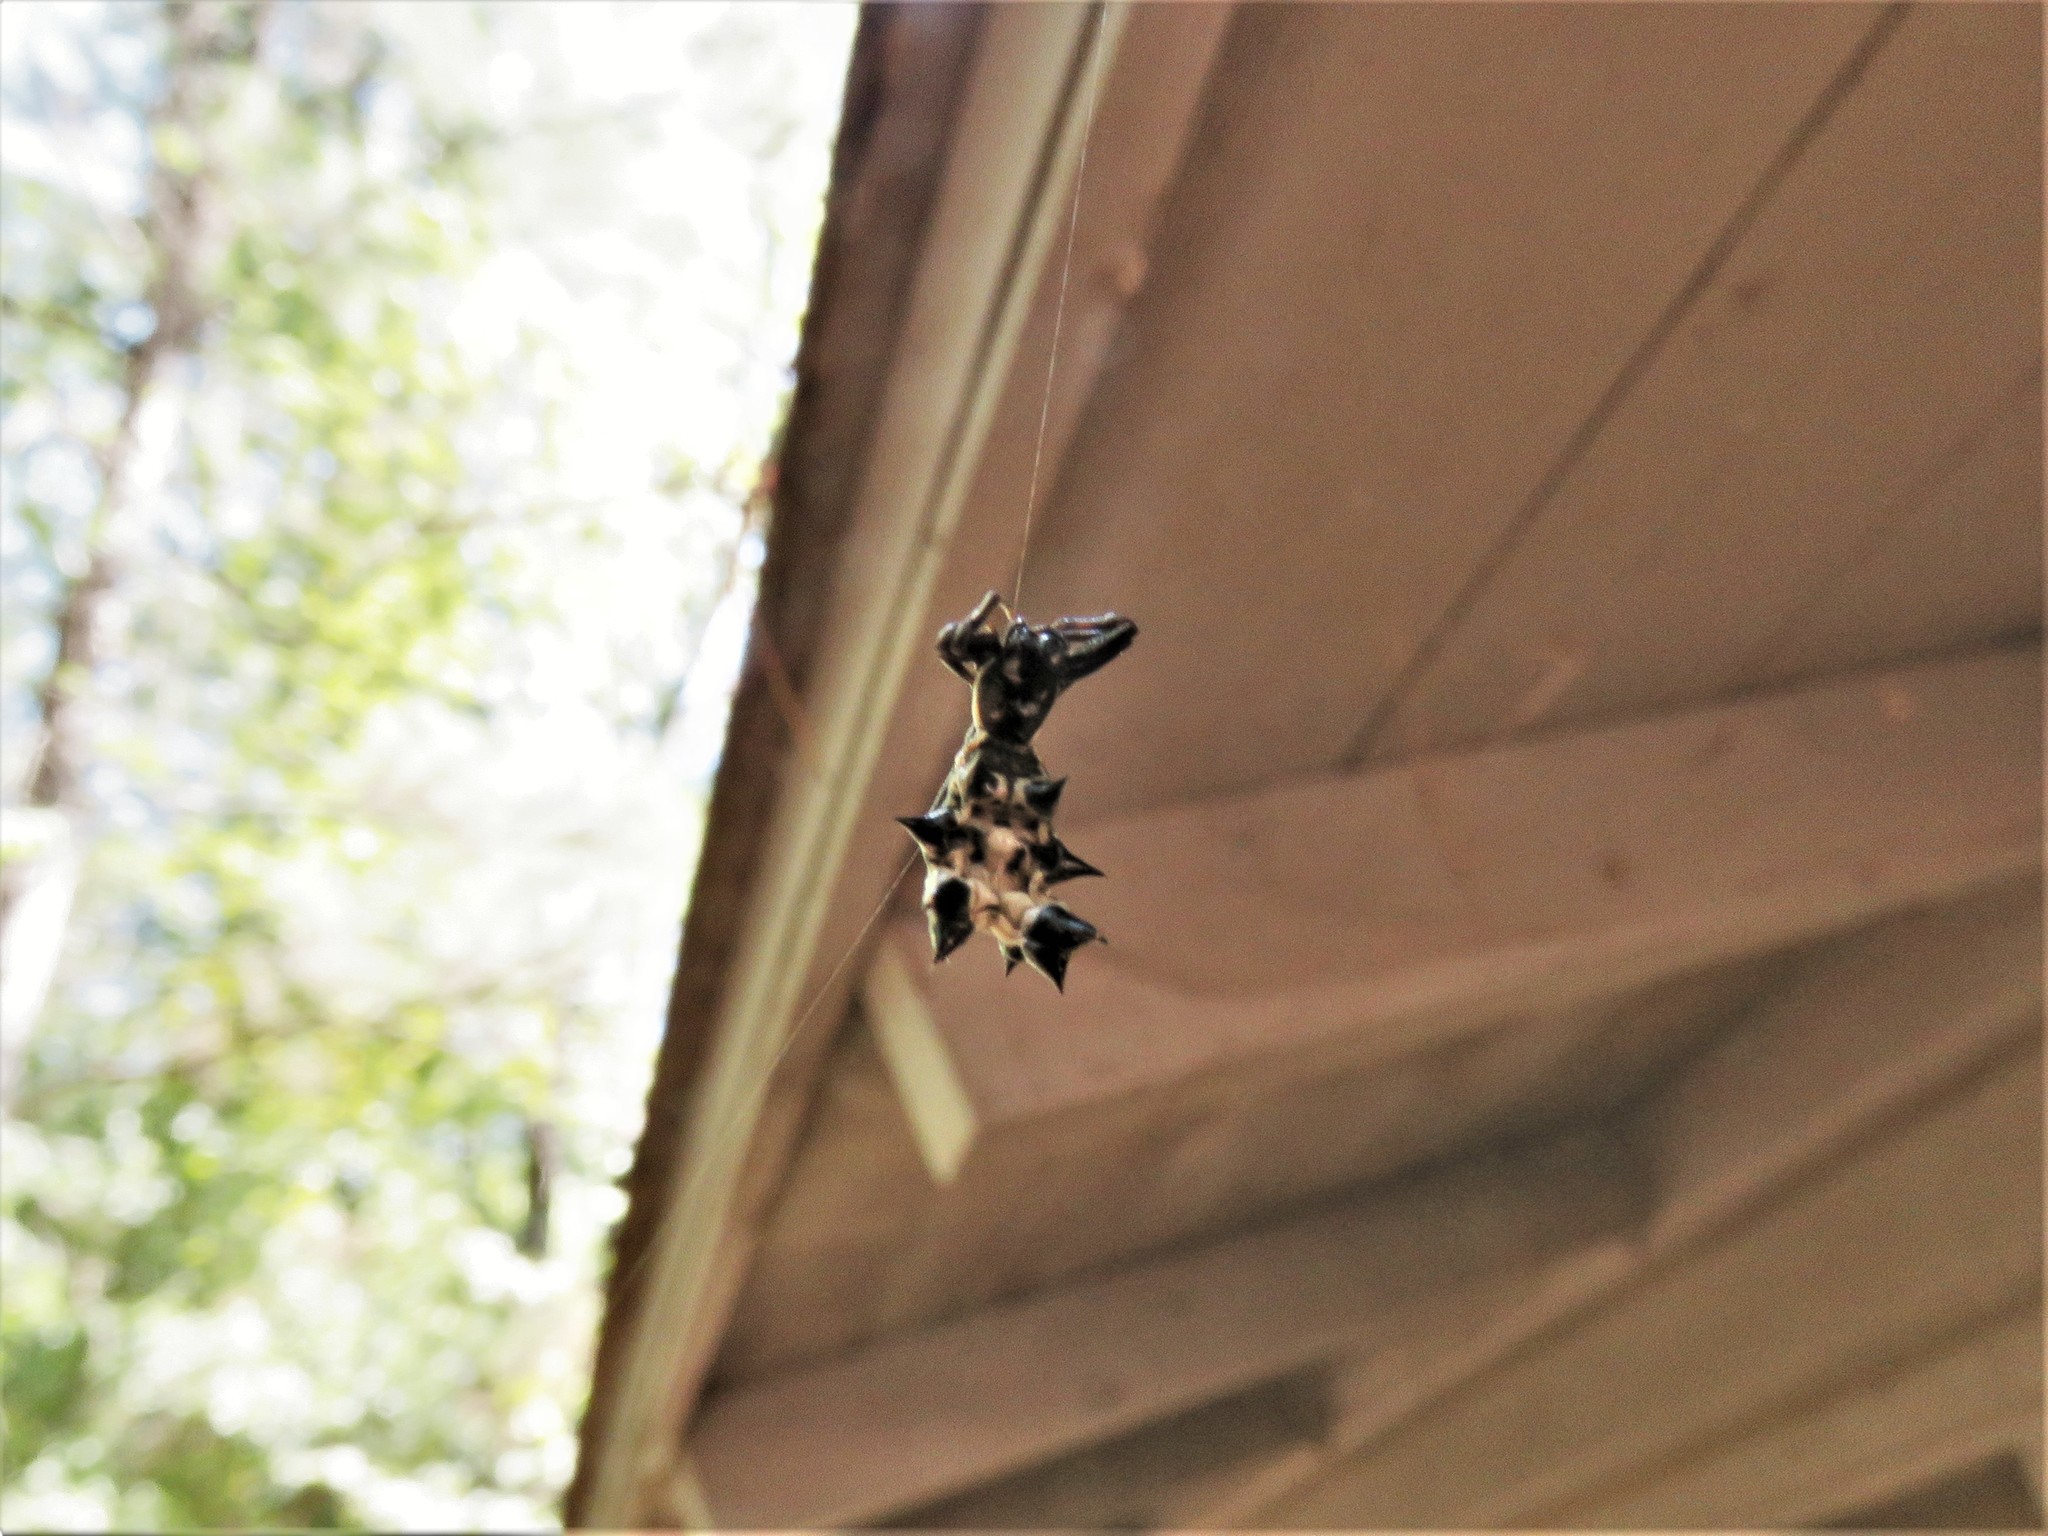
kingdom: Animalia
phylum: Arthropoda
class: Arachnida
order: Araneae
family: Araneidae
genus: Micrathena
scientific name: Micrathena gracilis
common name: Orb weavers
